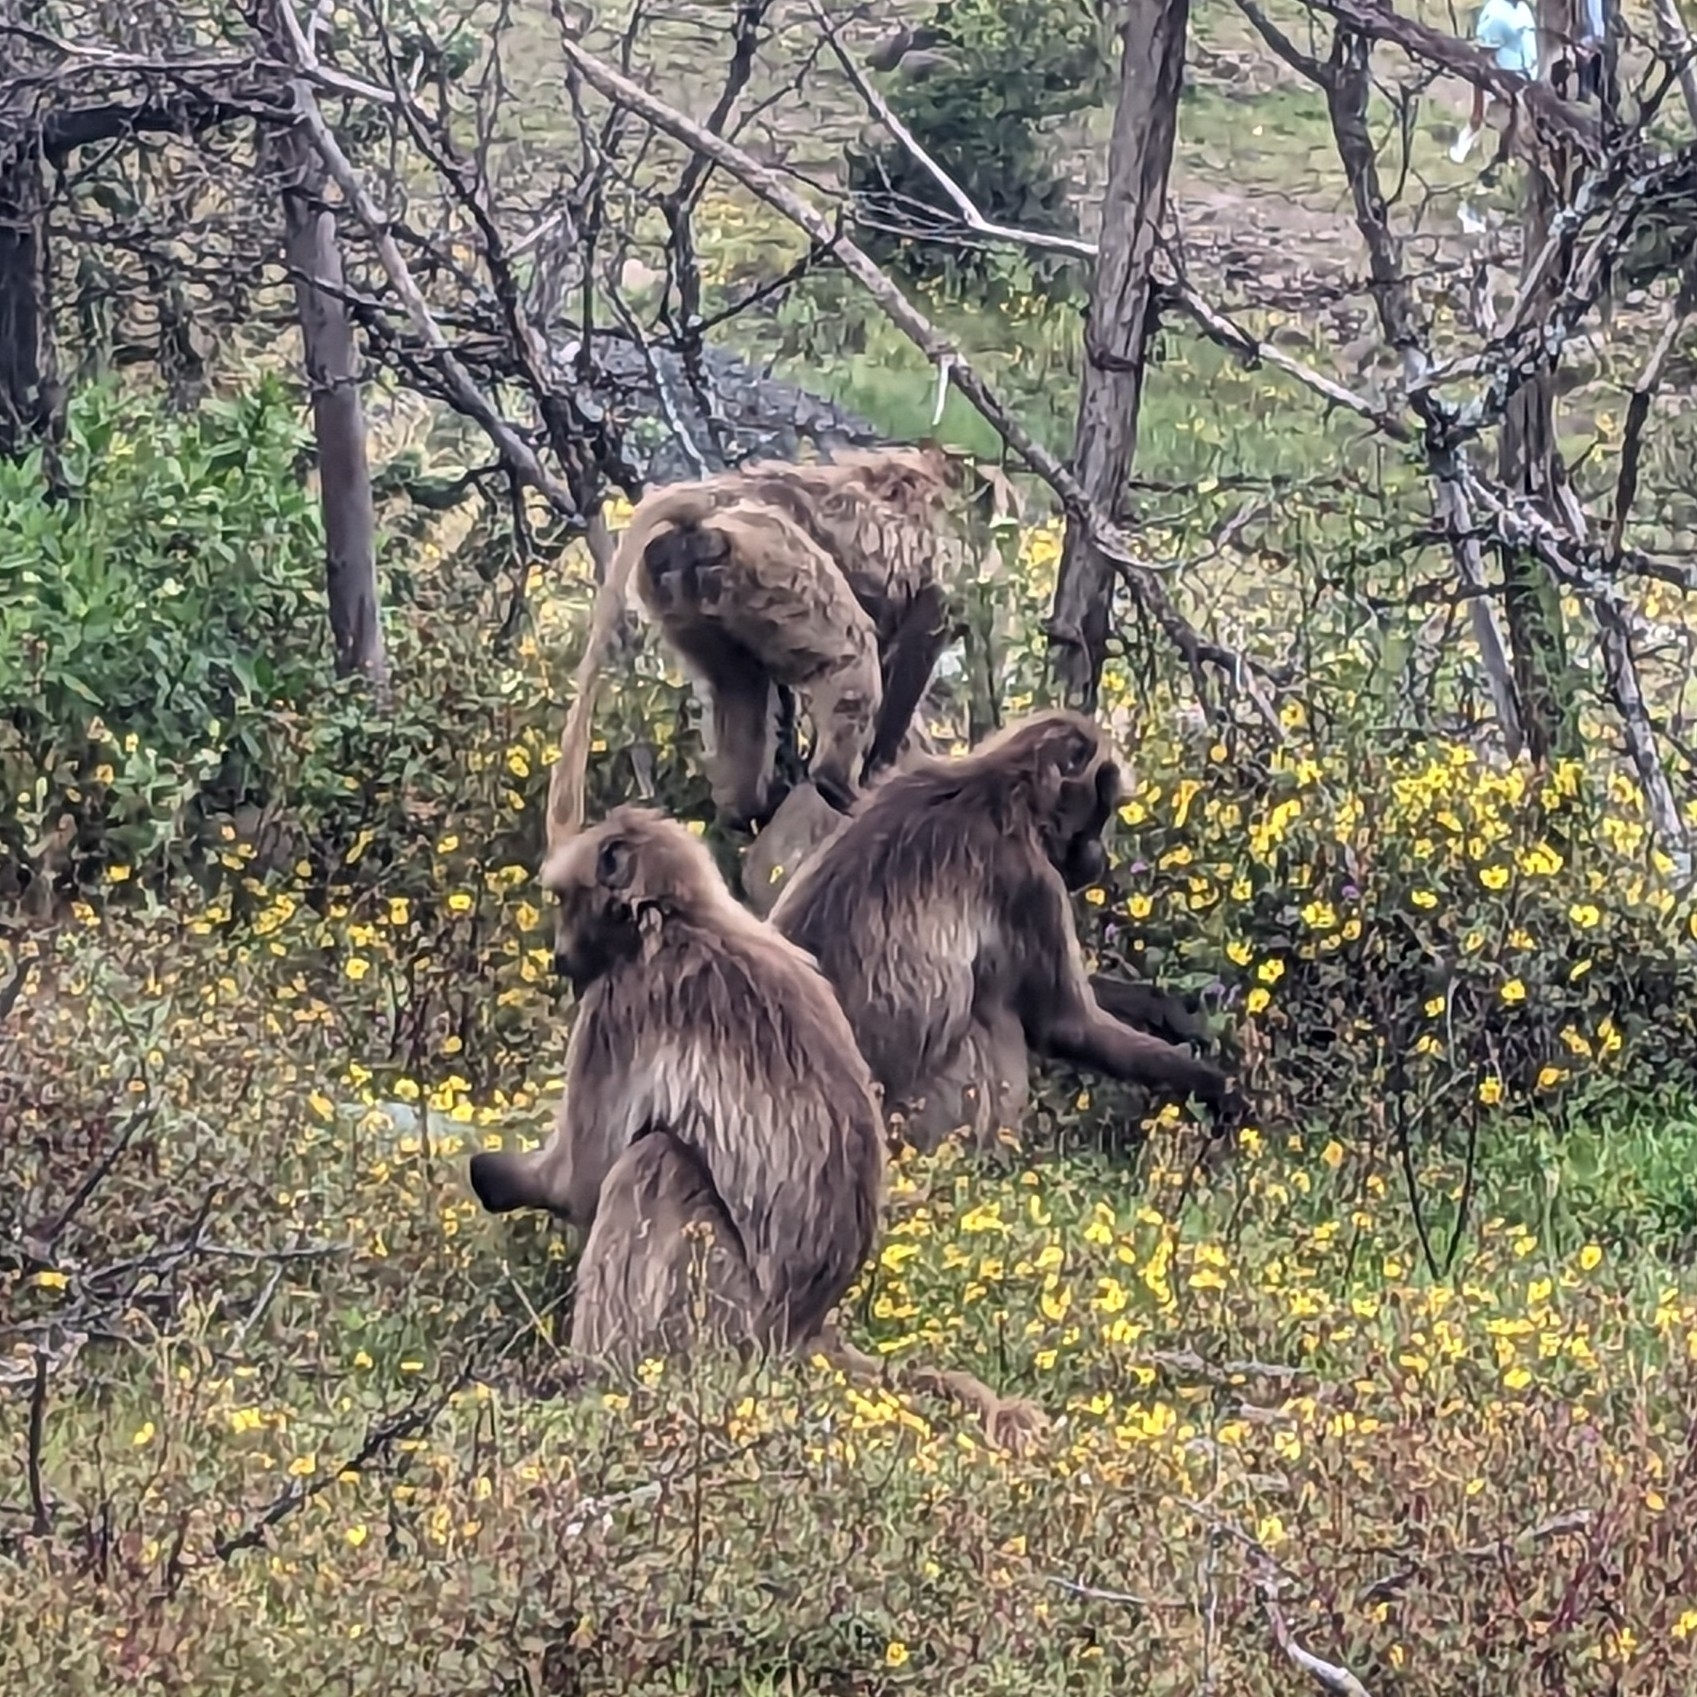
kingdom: Animalia
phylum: Chordata
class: Mammalia
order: Primates
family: Cercopithecidae
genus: Theropithecus
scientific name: Theropithecus gelada
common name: Gelada
